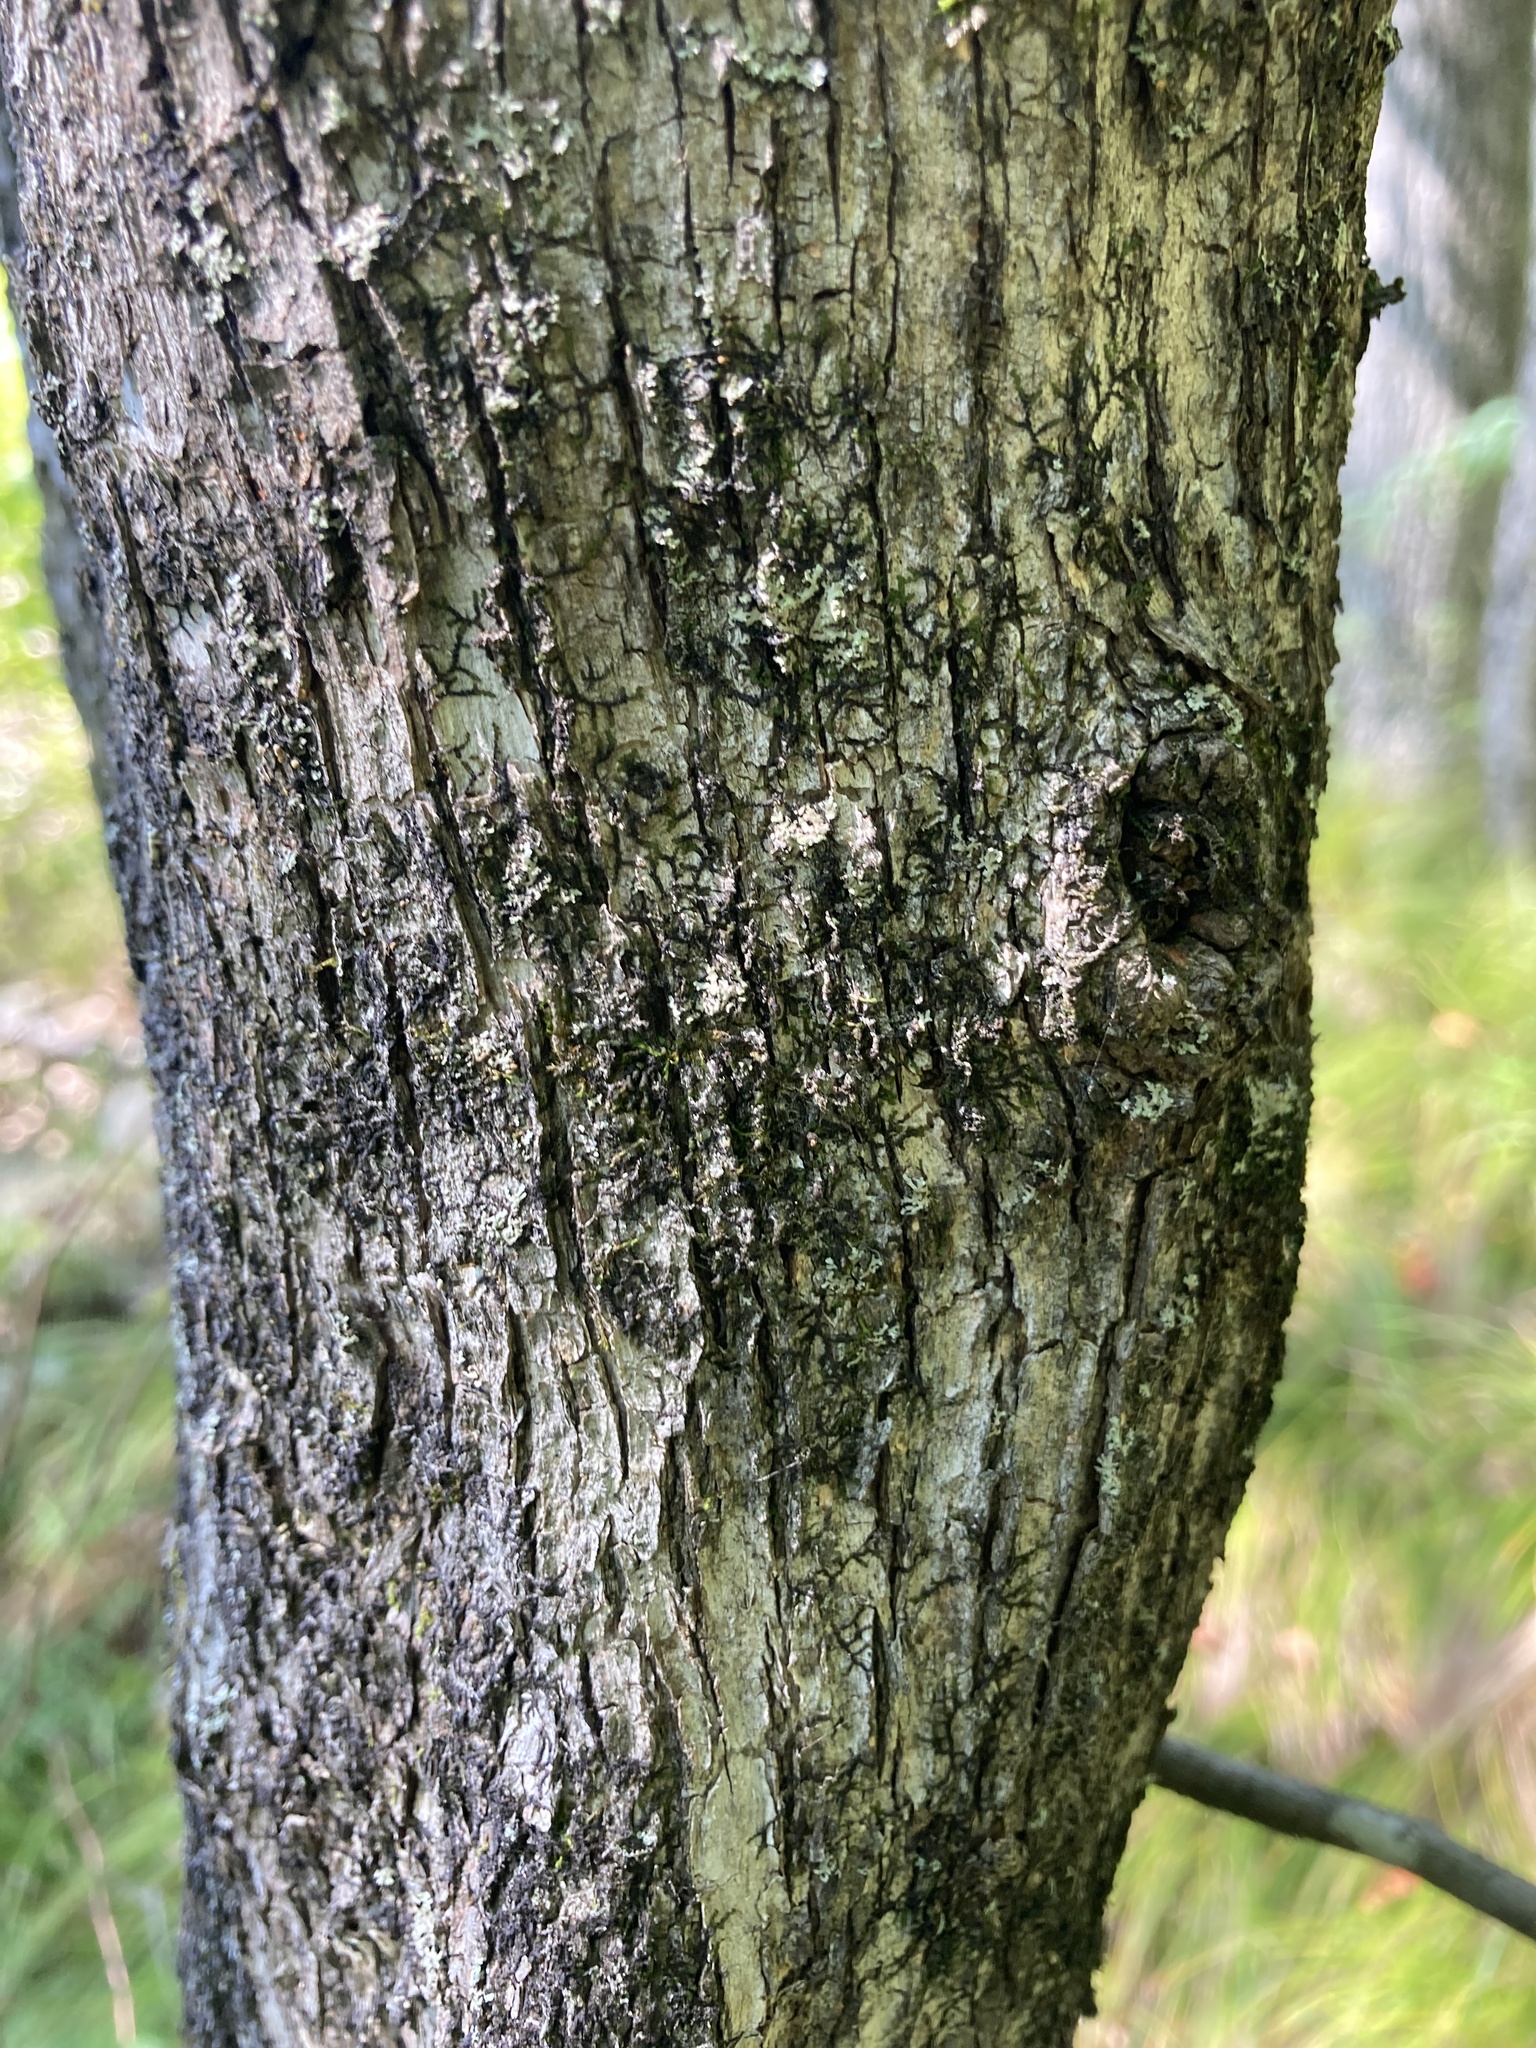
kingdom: Plantae
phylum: Tracheophyta
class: Magnoliopsida
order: Fagales
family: Betulaceae
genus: Ostrya
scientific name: Ostrya virginiana
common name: Ironwood
